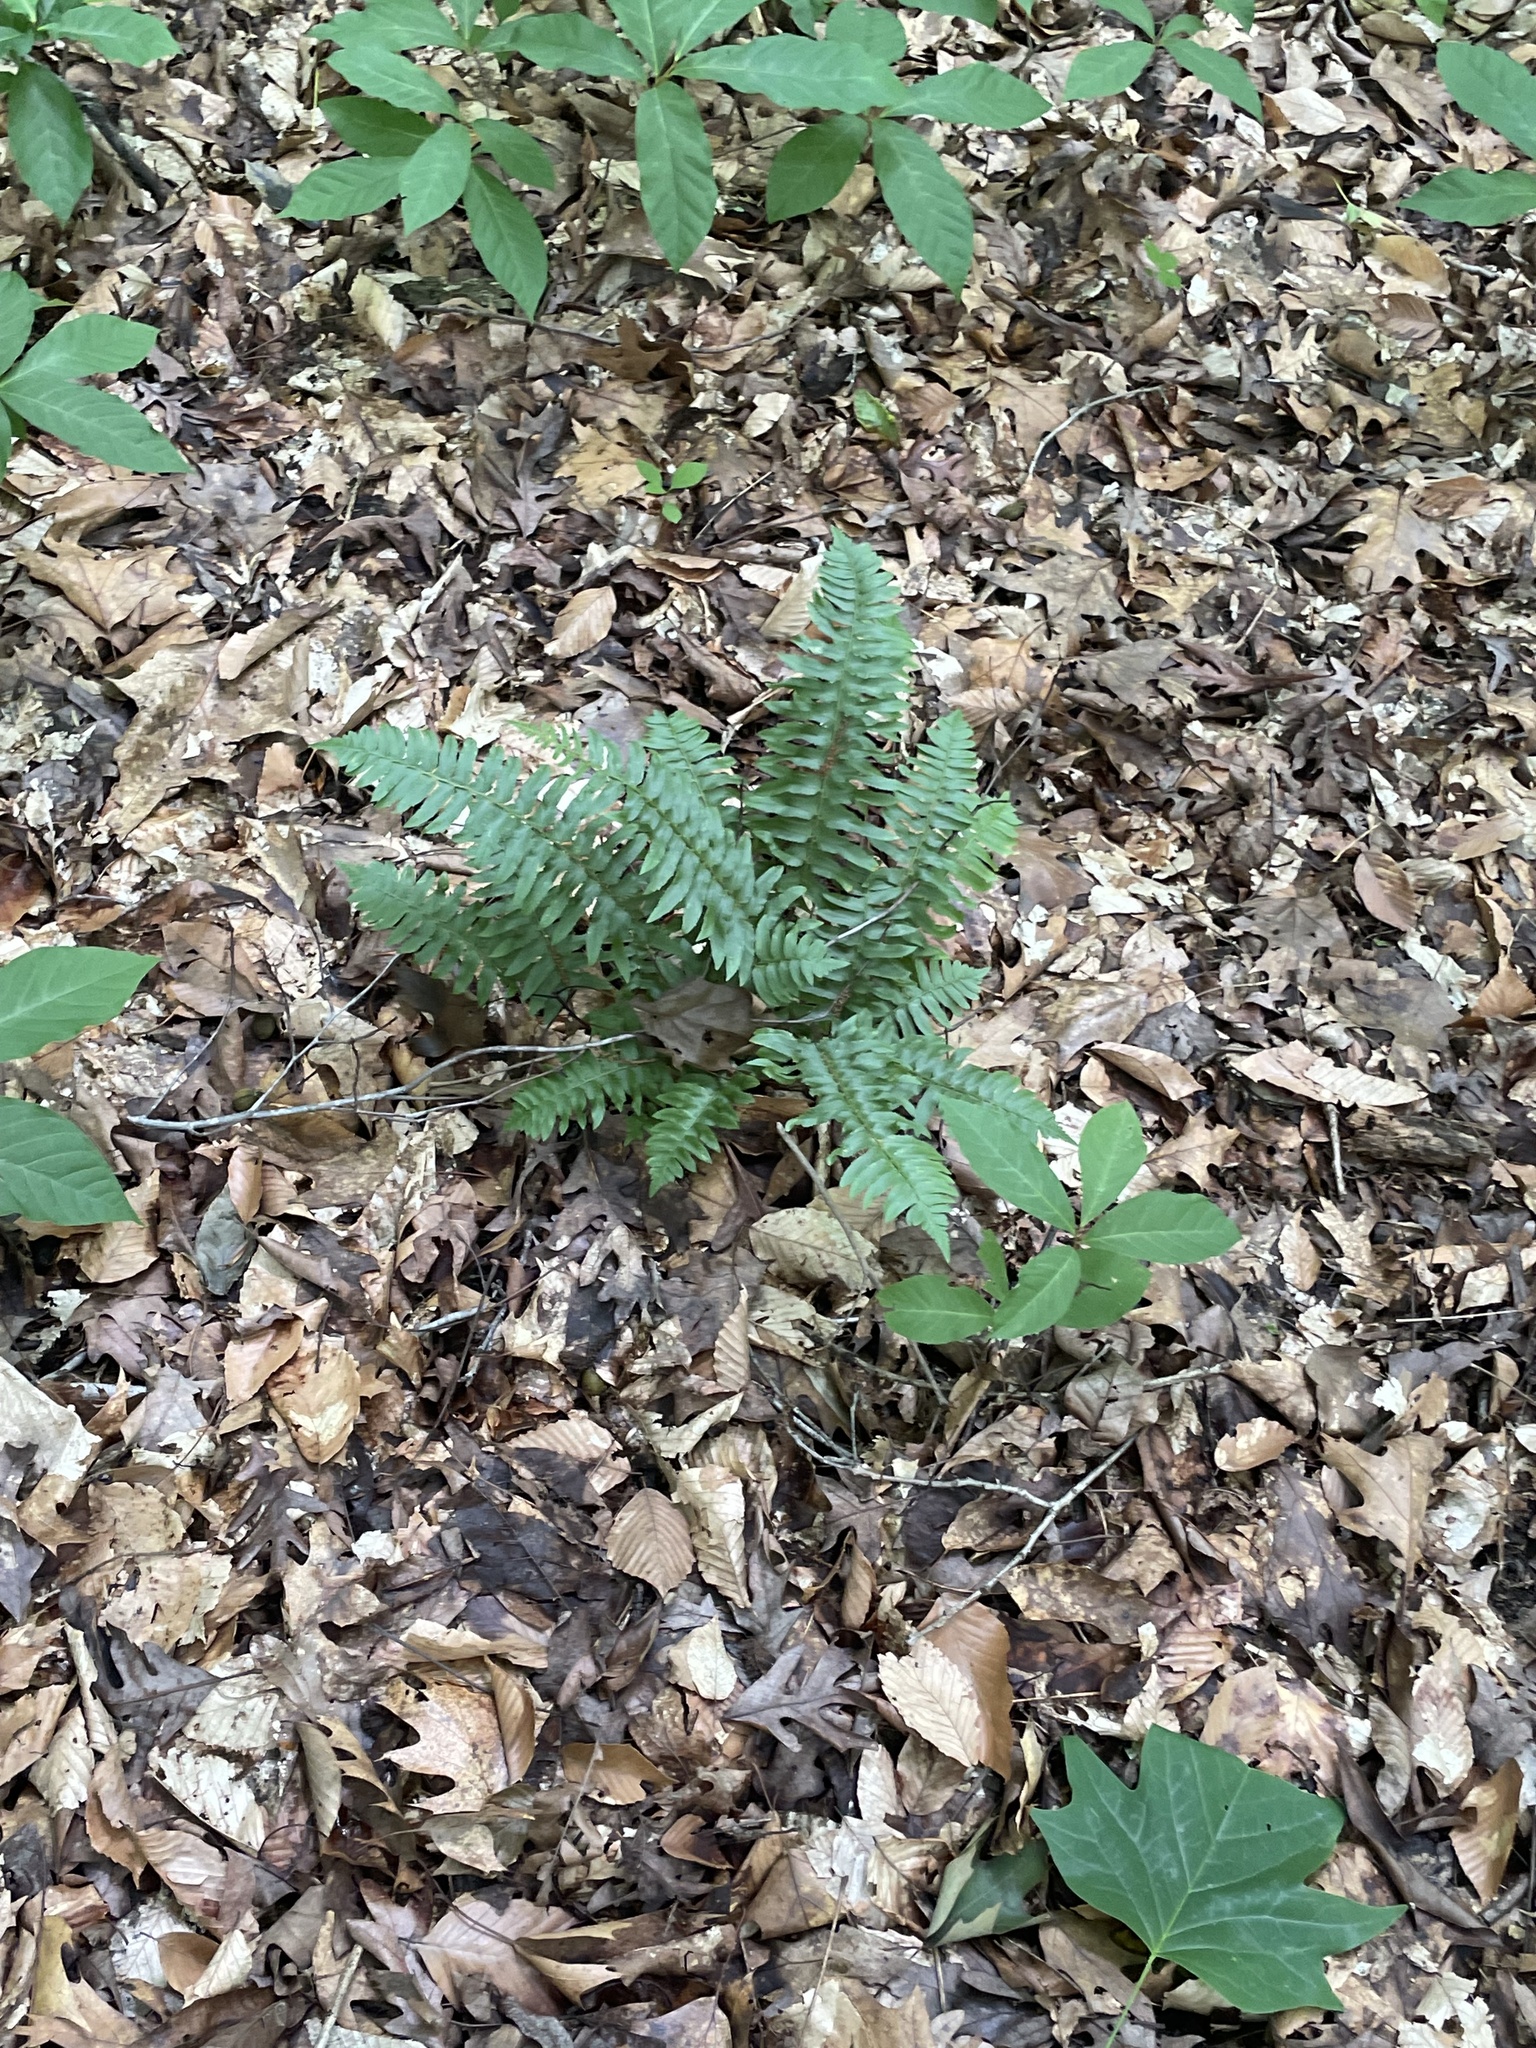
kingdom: Plantae
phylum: Tracheophyta
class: Polypodiopsida
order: Polypodiales
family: Dryopteridaceae
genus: Polystichum
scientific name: Polystichum acrostichoides
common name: Christmas fern
